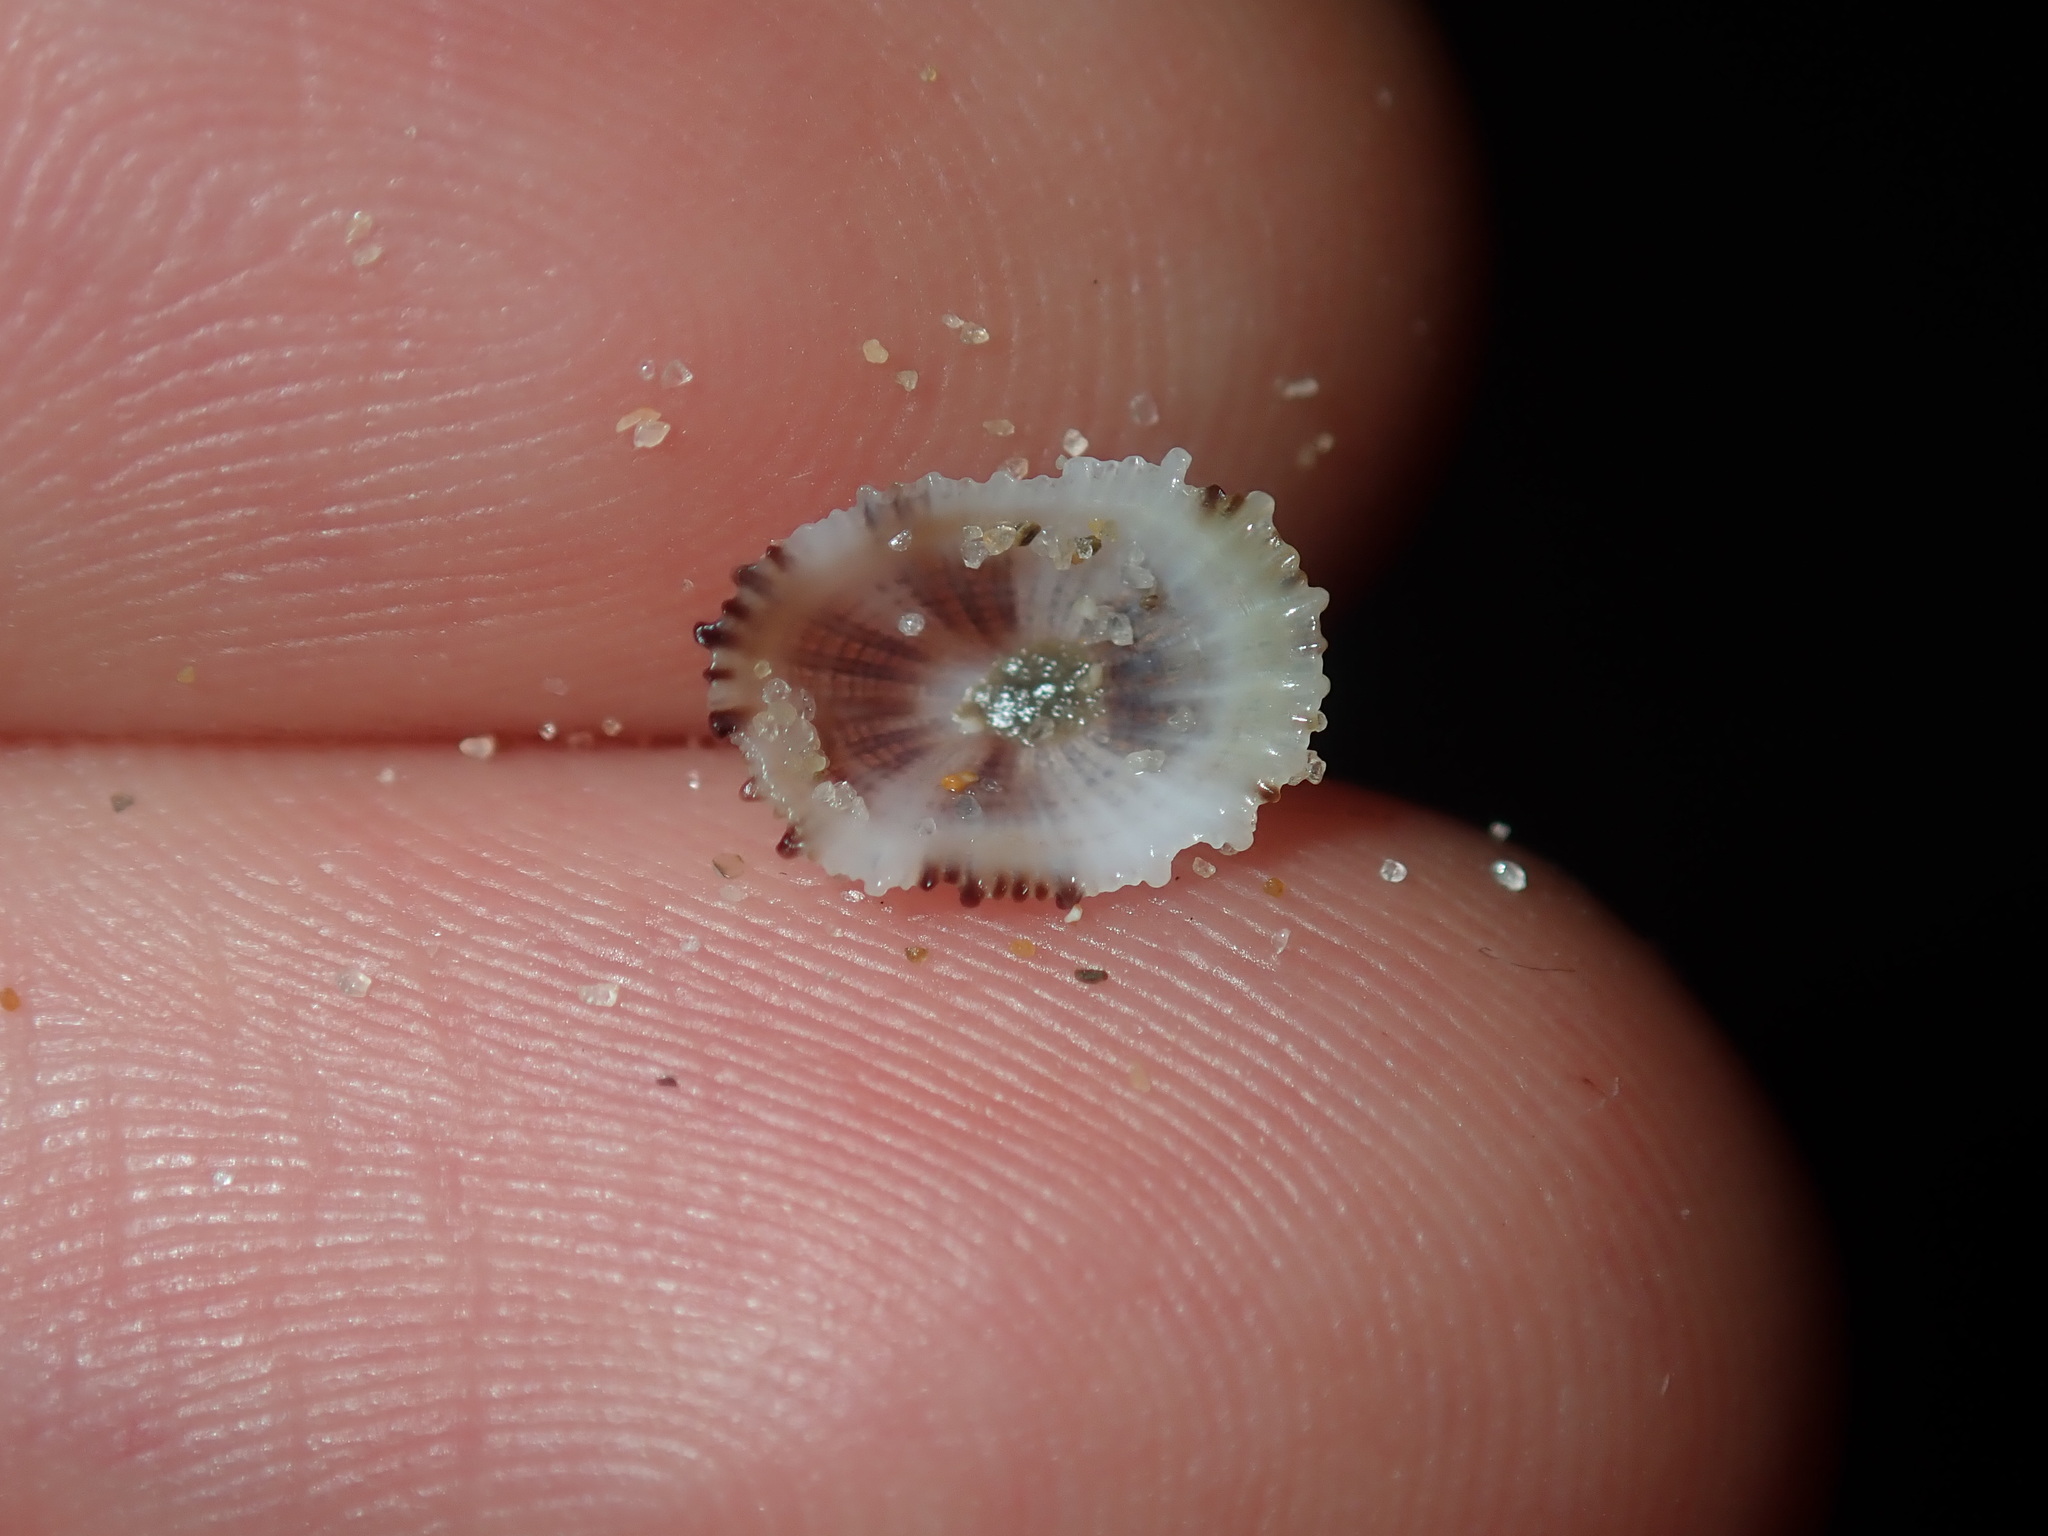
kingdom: Animalia
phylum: Mollusca
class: Gastropoda
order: Lepetellida
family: Fissurellidae
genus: Montfortula
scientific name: Montfortula rugosa
